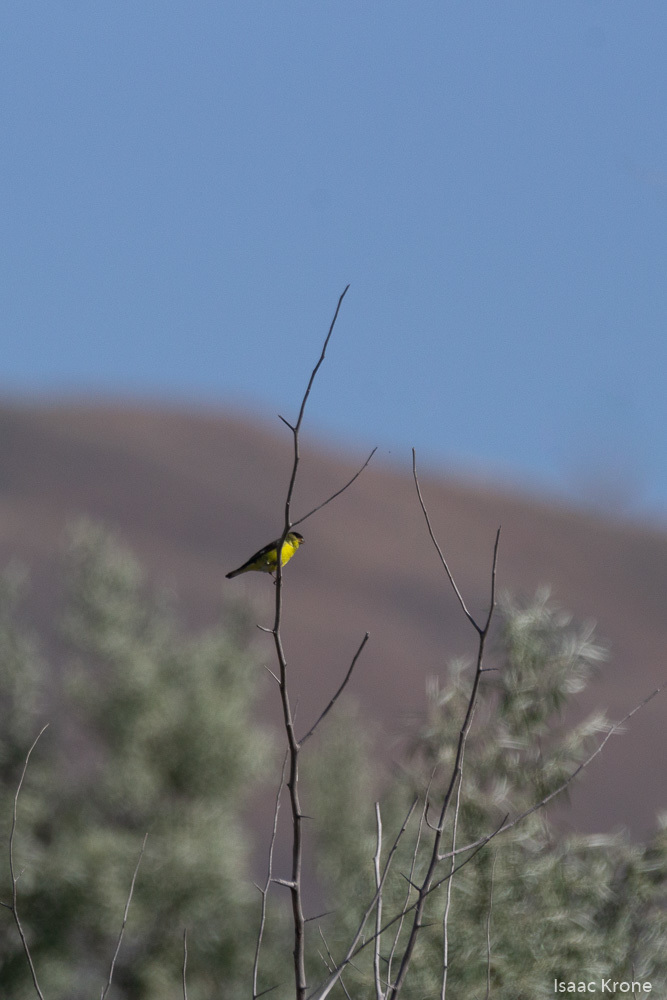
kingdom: Animalia
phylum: Chordata
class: Aves
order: Passeriformes
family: Fringillidae
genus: Spinus
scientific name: Spinus psaltria
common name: Lesser goldfinch
